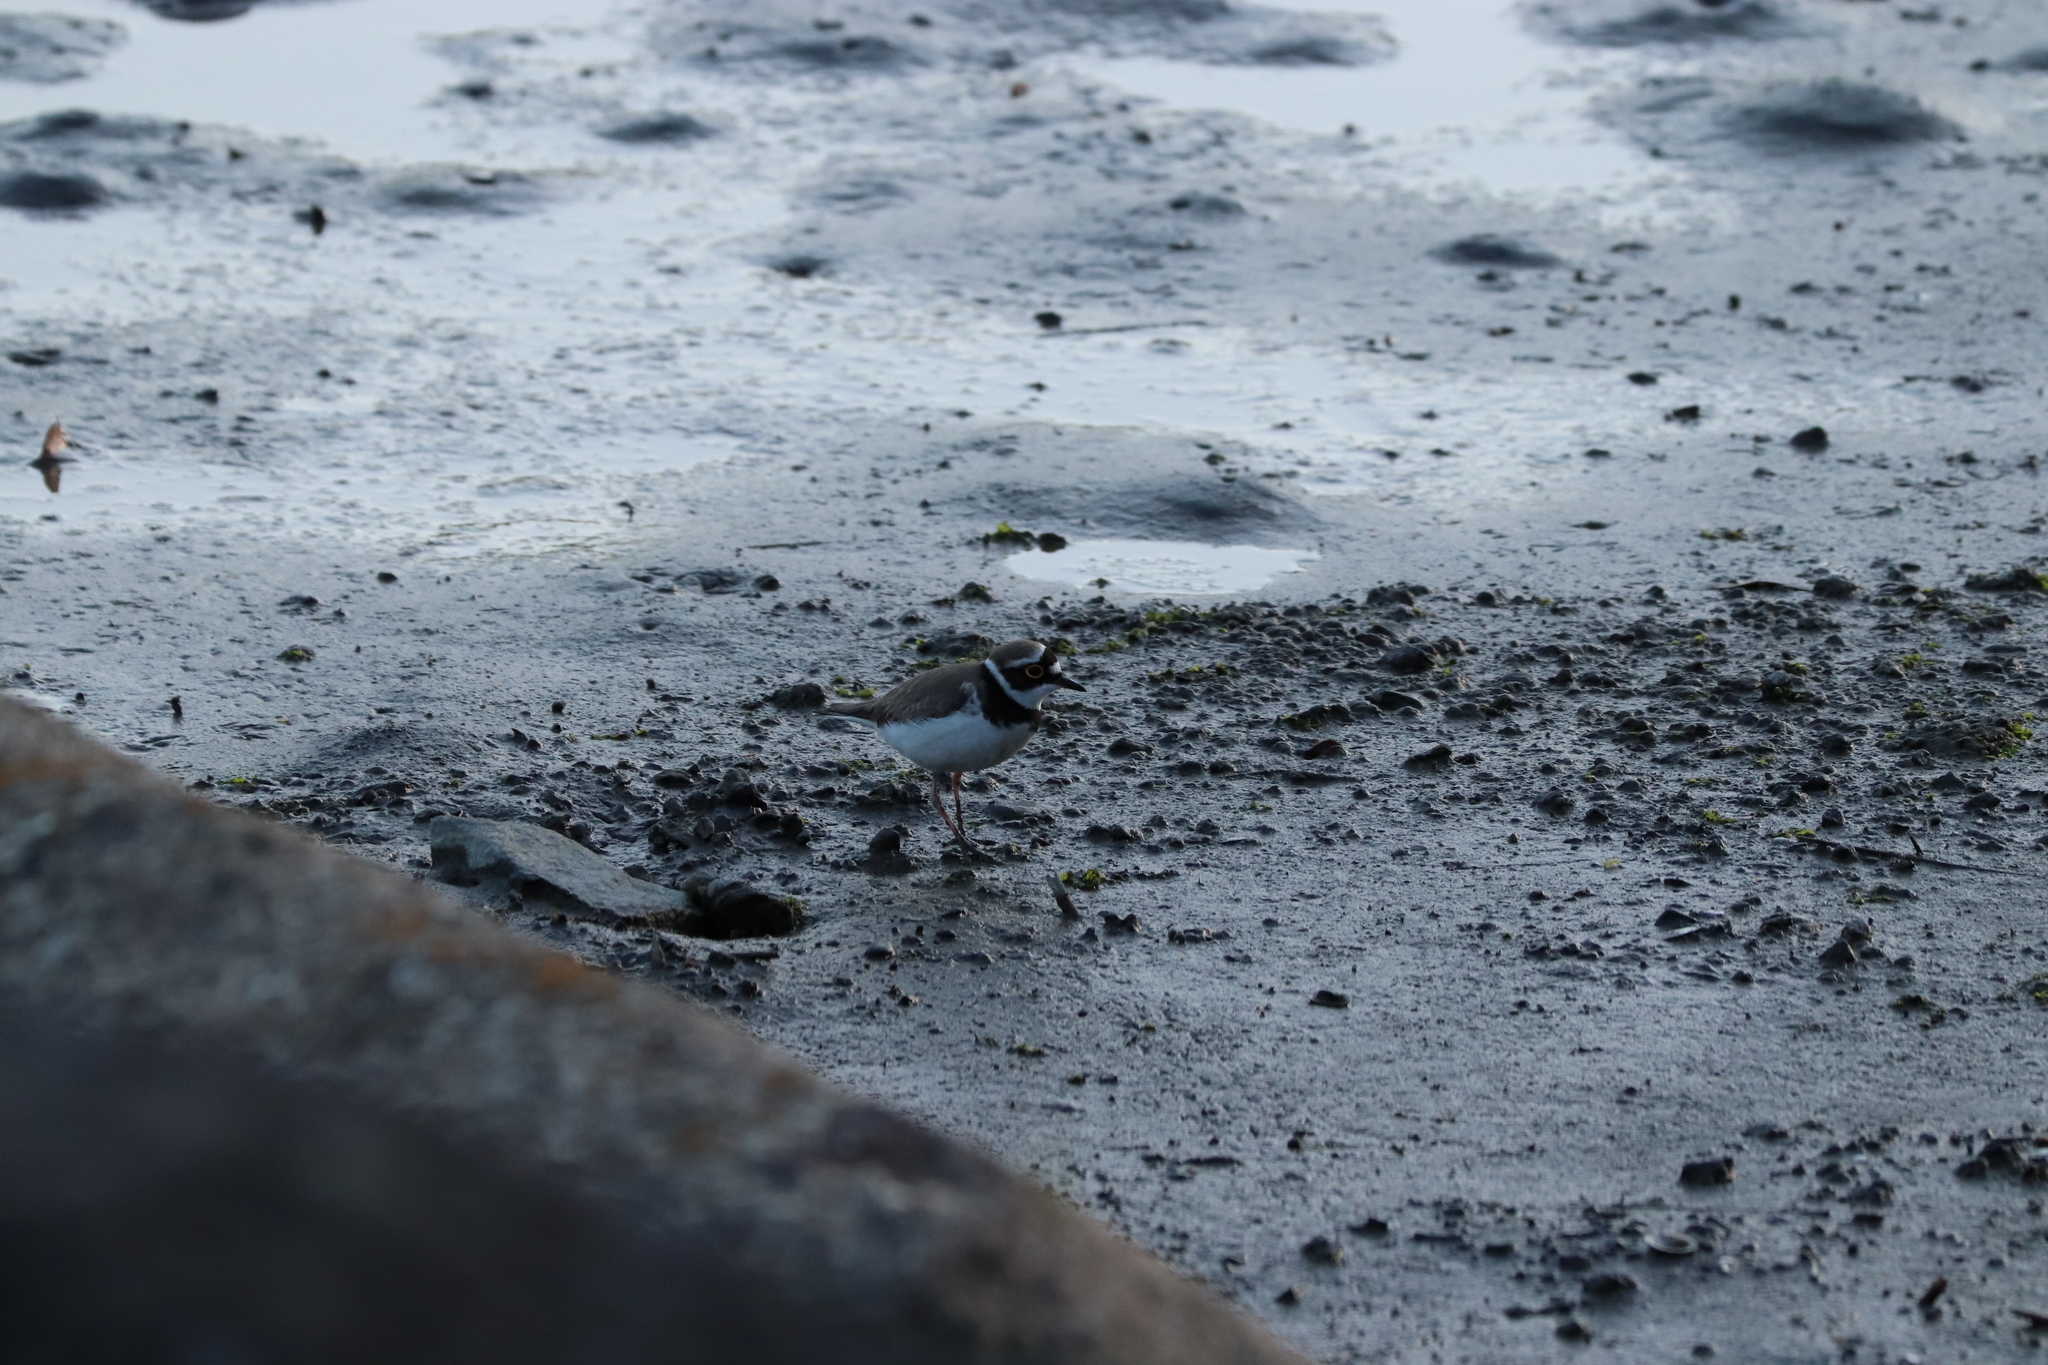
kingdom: Animalia
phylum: Chordata
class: Aves
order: Charadriiformes
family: Charadriidae
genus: Charadrius
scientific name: Charadrius dubius
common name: Little ringed plover
